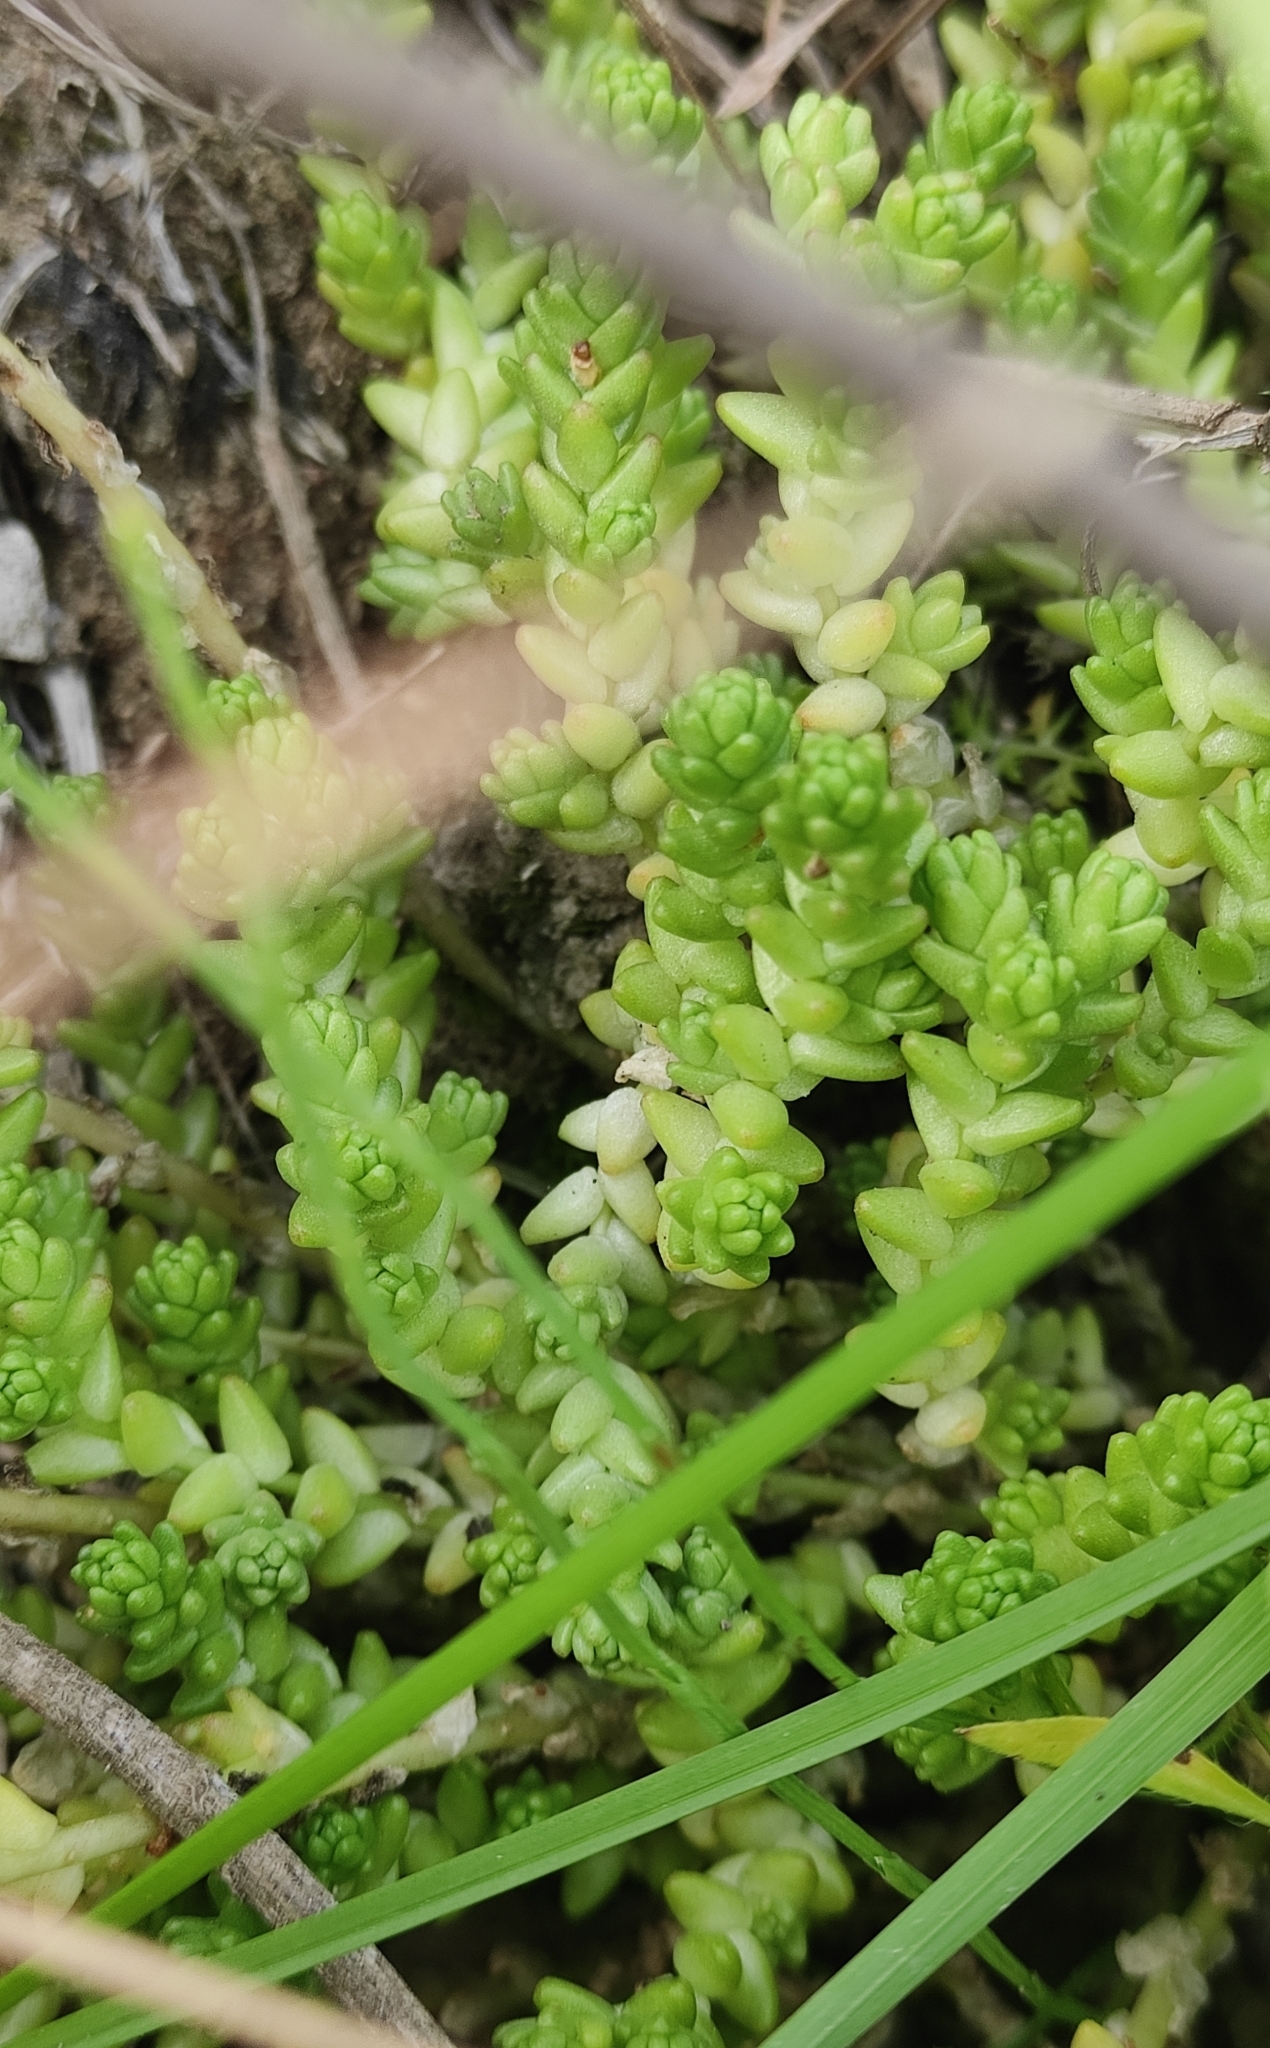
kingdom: Plantae
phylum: Tracheophyta
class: Magnoliopsida
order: Saxifragales
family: Crassulaceae
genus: Sedum
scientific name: Sedum acre
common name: Biting stonecrop
